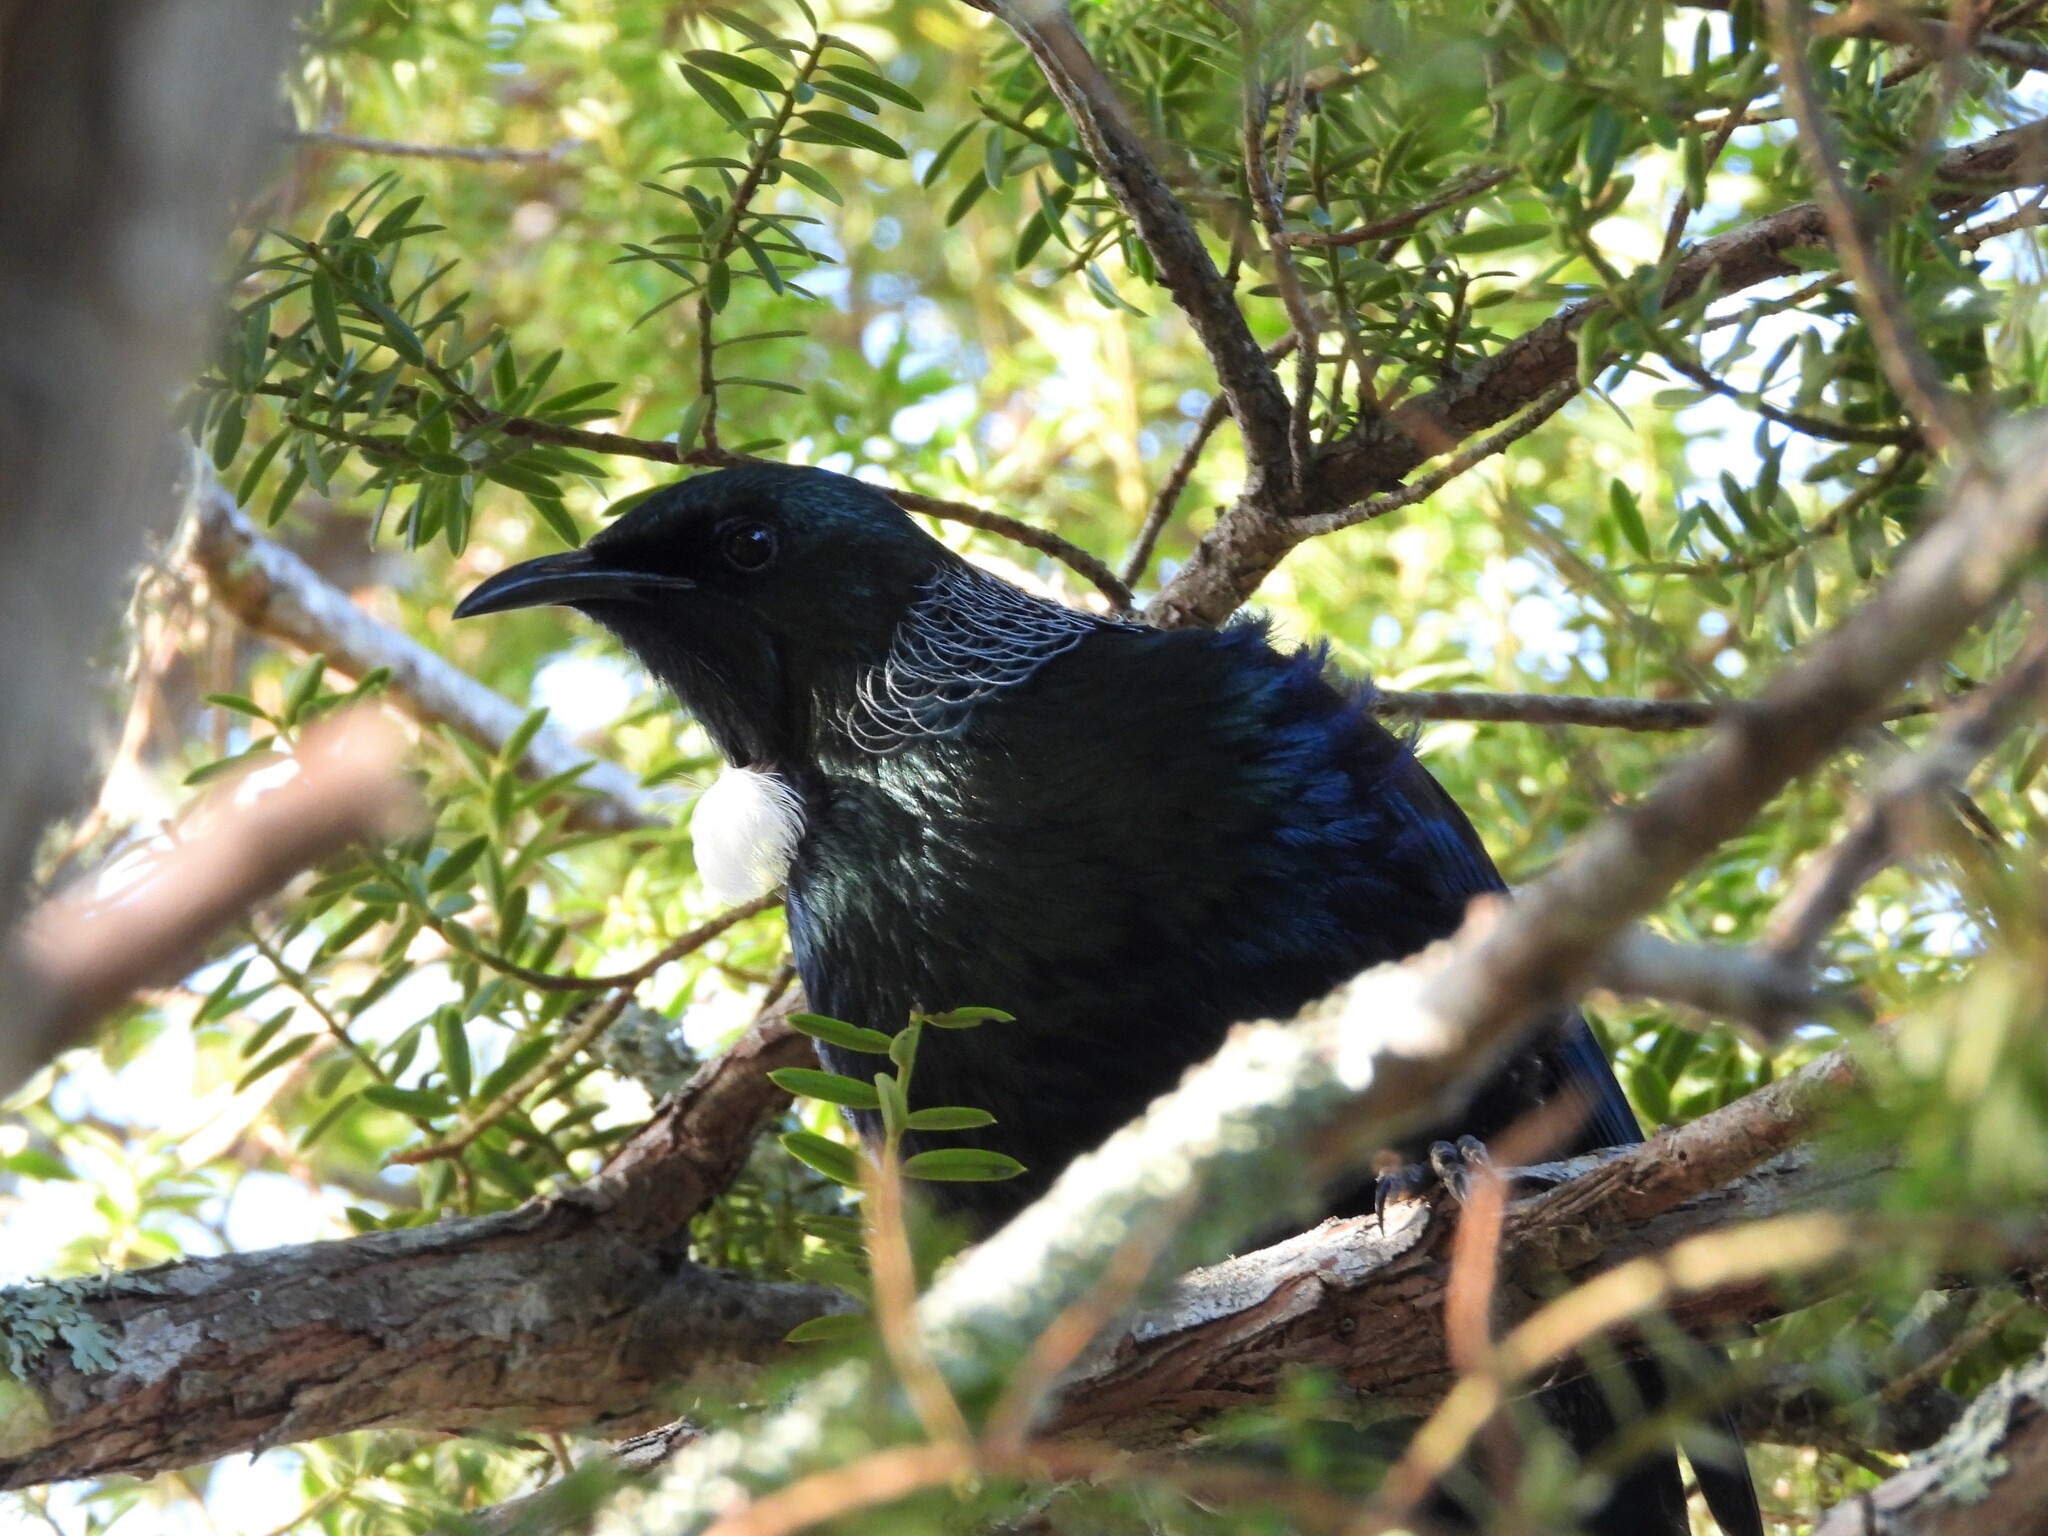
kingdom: Animalia
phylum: Chordata
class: Aves
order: Passeriformes
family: Meliphagidae
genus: Prosthemadera
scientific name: Prosthemadera novaeseelandiae
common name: Tui
